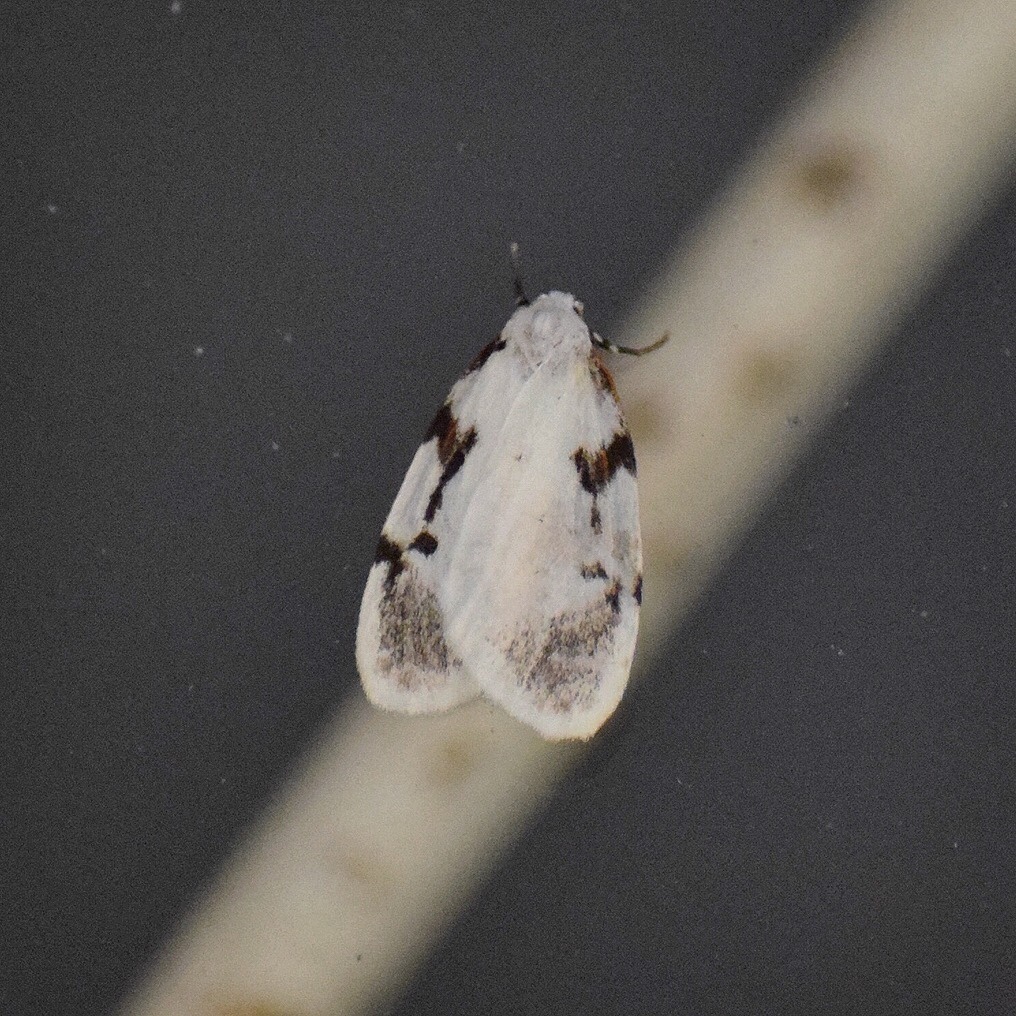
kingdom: Animalia
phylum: Arthropoda
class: Insecta
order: Lepidoptera
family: Erebidae
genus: Cyana
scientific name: Cyana marshalli
